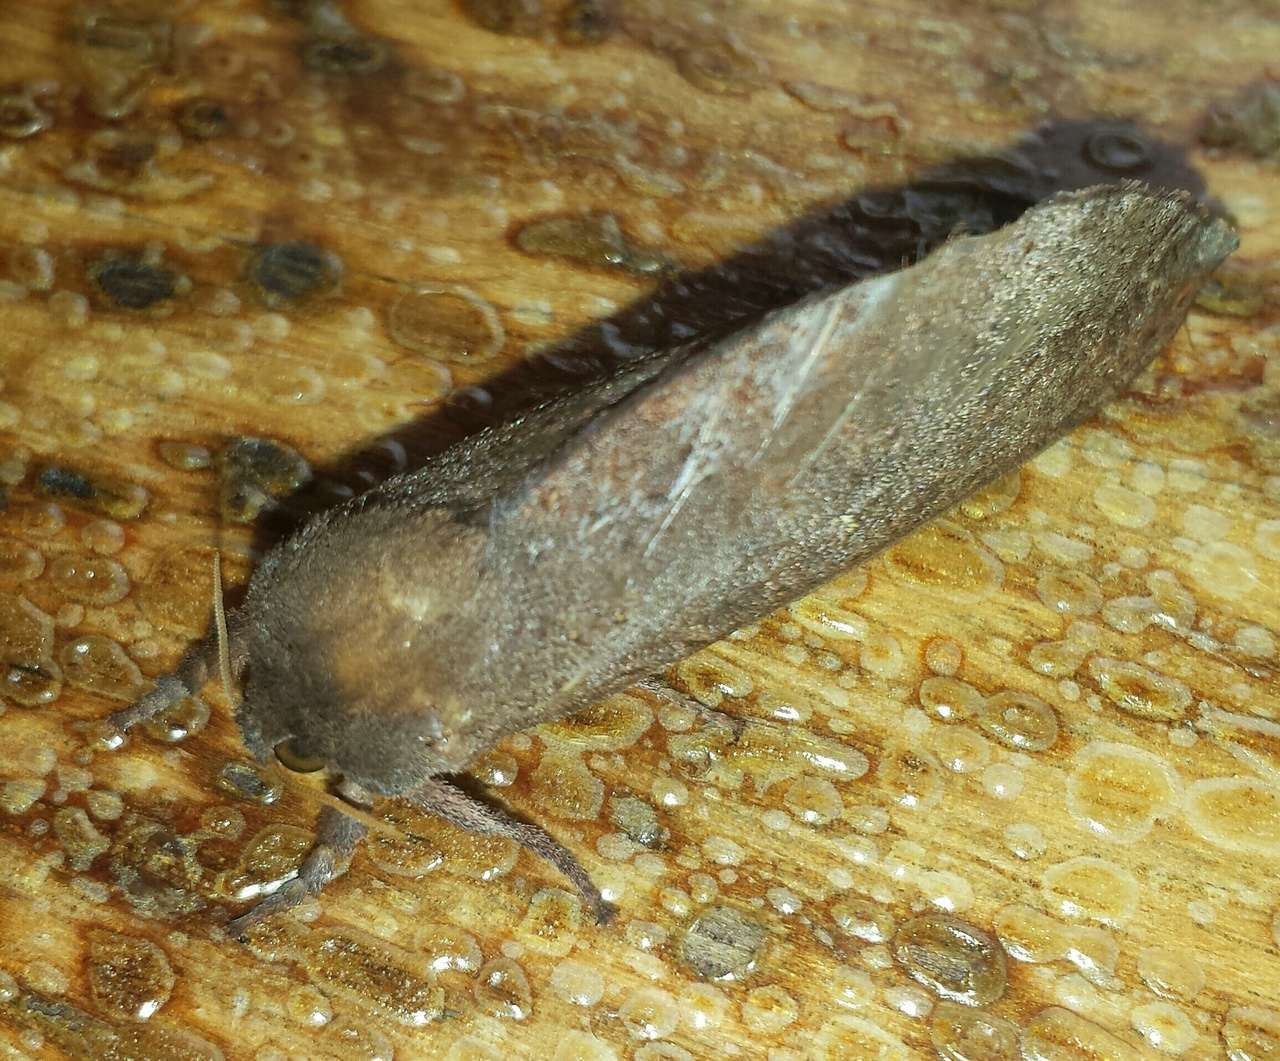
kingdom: Animalia
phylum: Arthropoda
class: Insecta
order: Lepidoptera
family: Hepialidae
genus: Elhamma
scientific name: Elhamma australasiae
